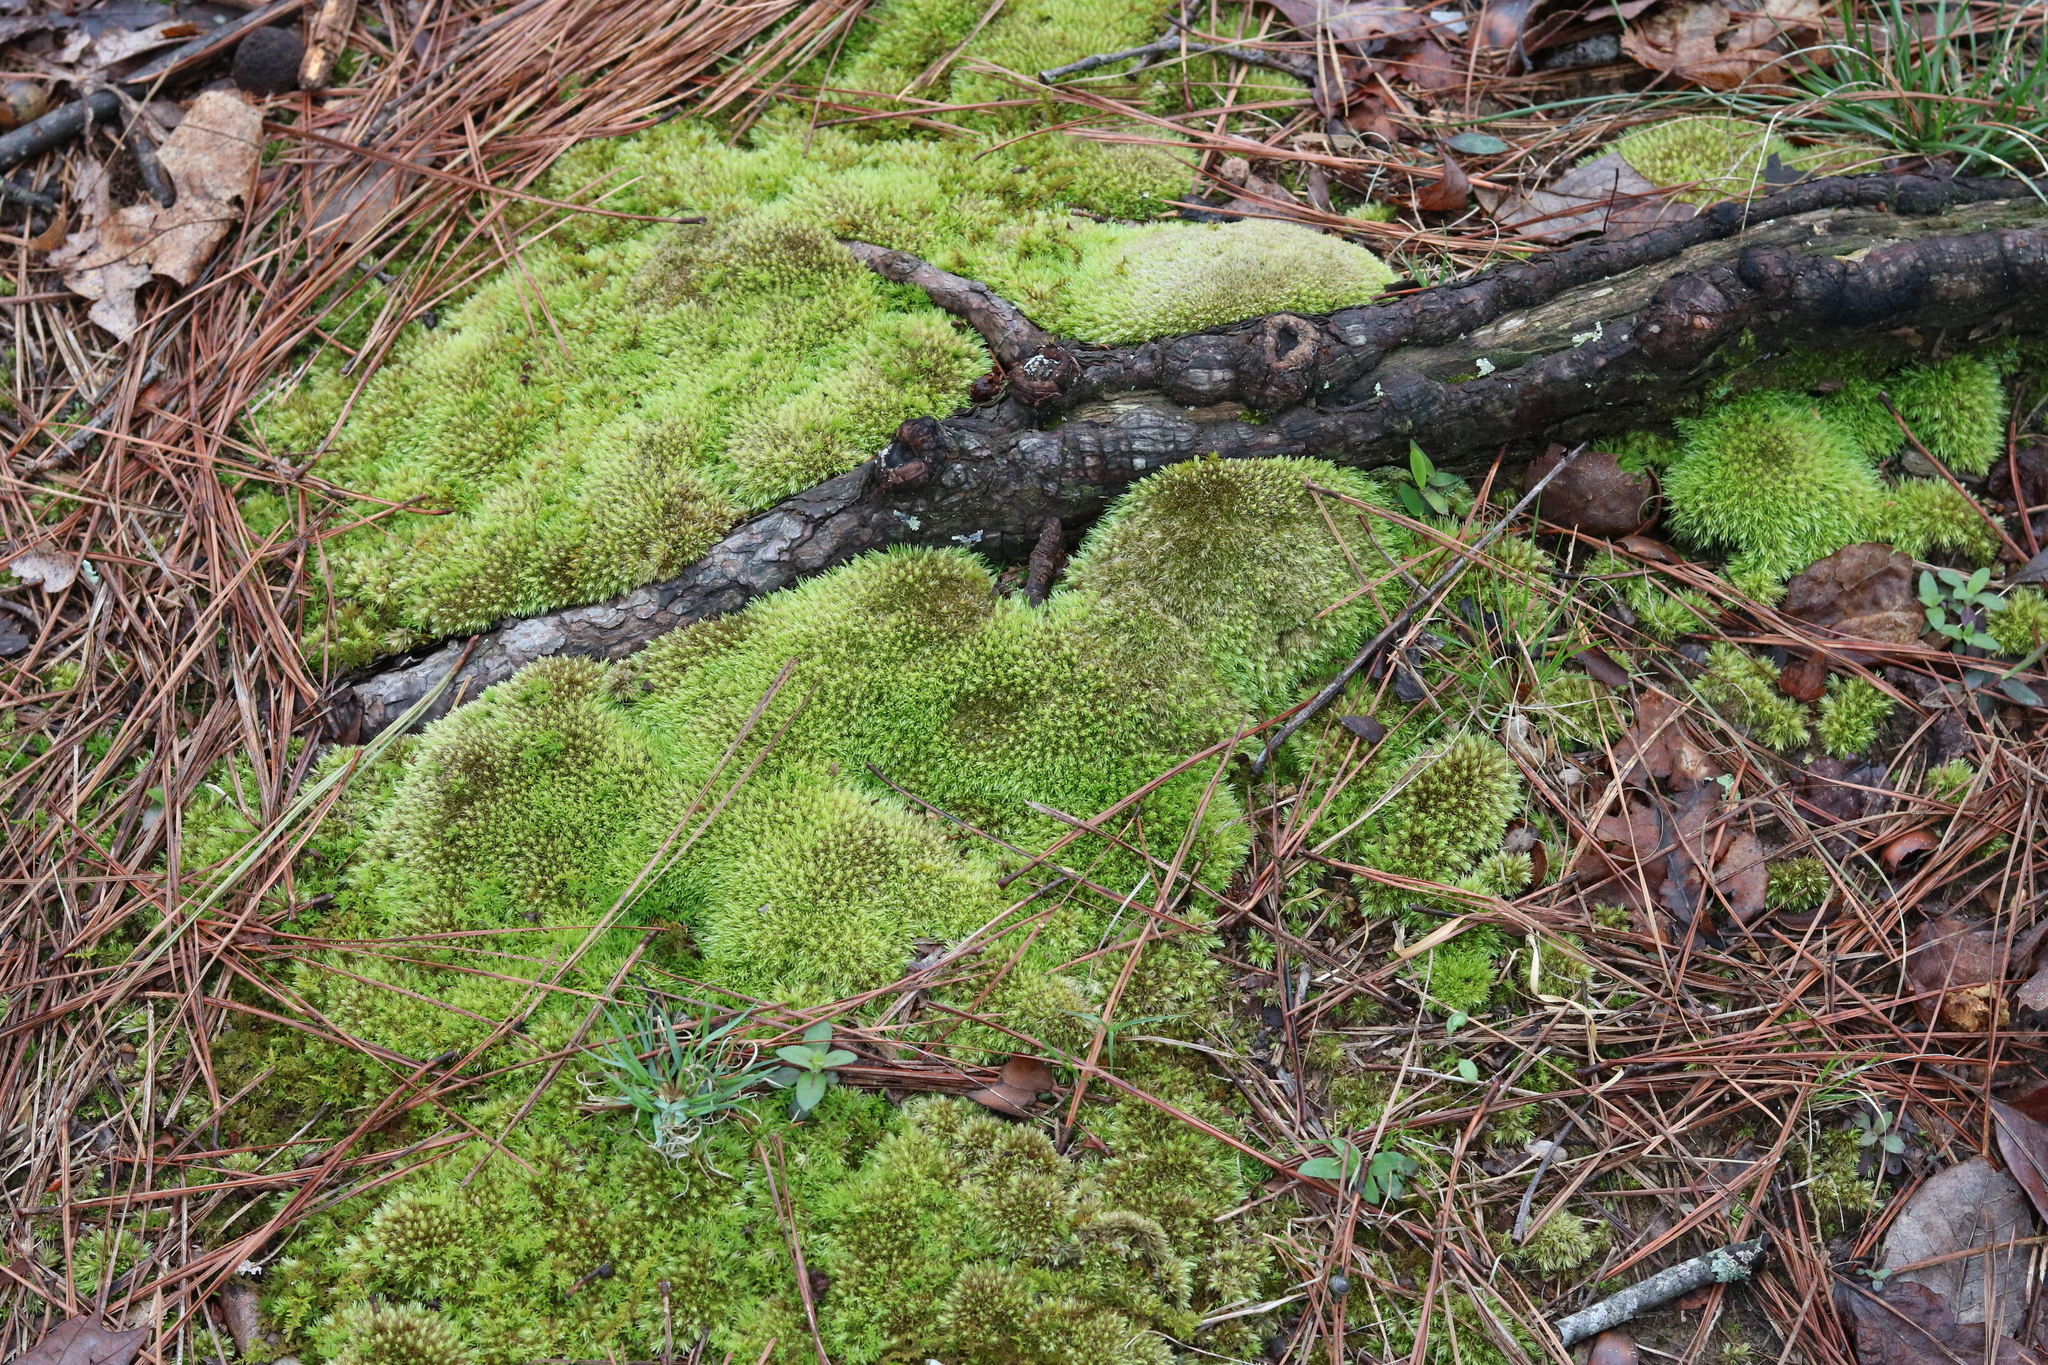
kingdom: Plantae
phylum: Bryophyta
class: Bryopsida
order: Dicranales
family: Leucobryaceae
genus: Leucobryum
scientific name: Leucobryum glaucum
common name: Large white-moss
